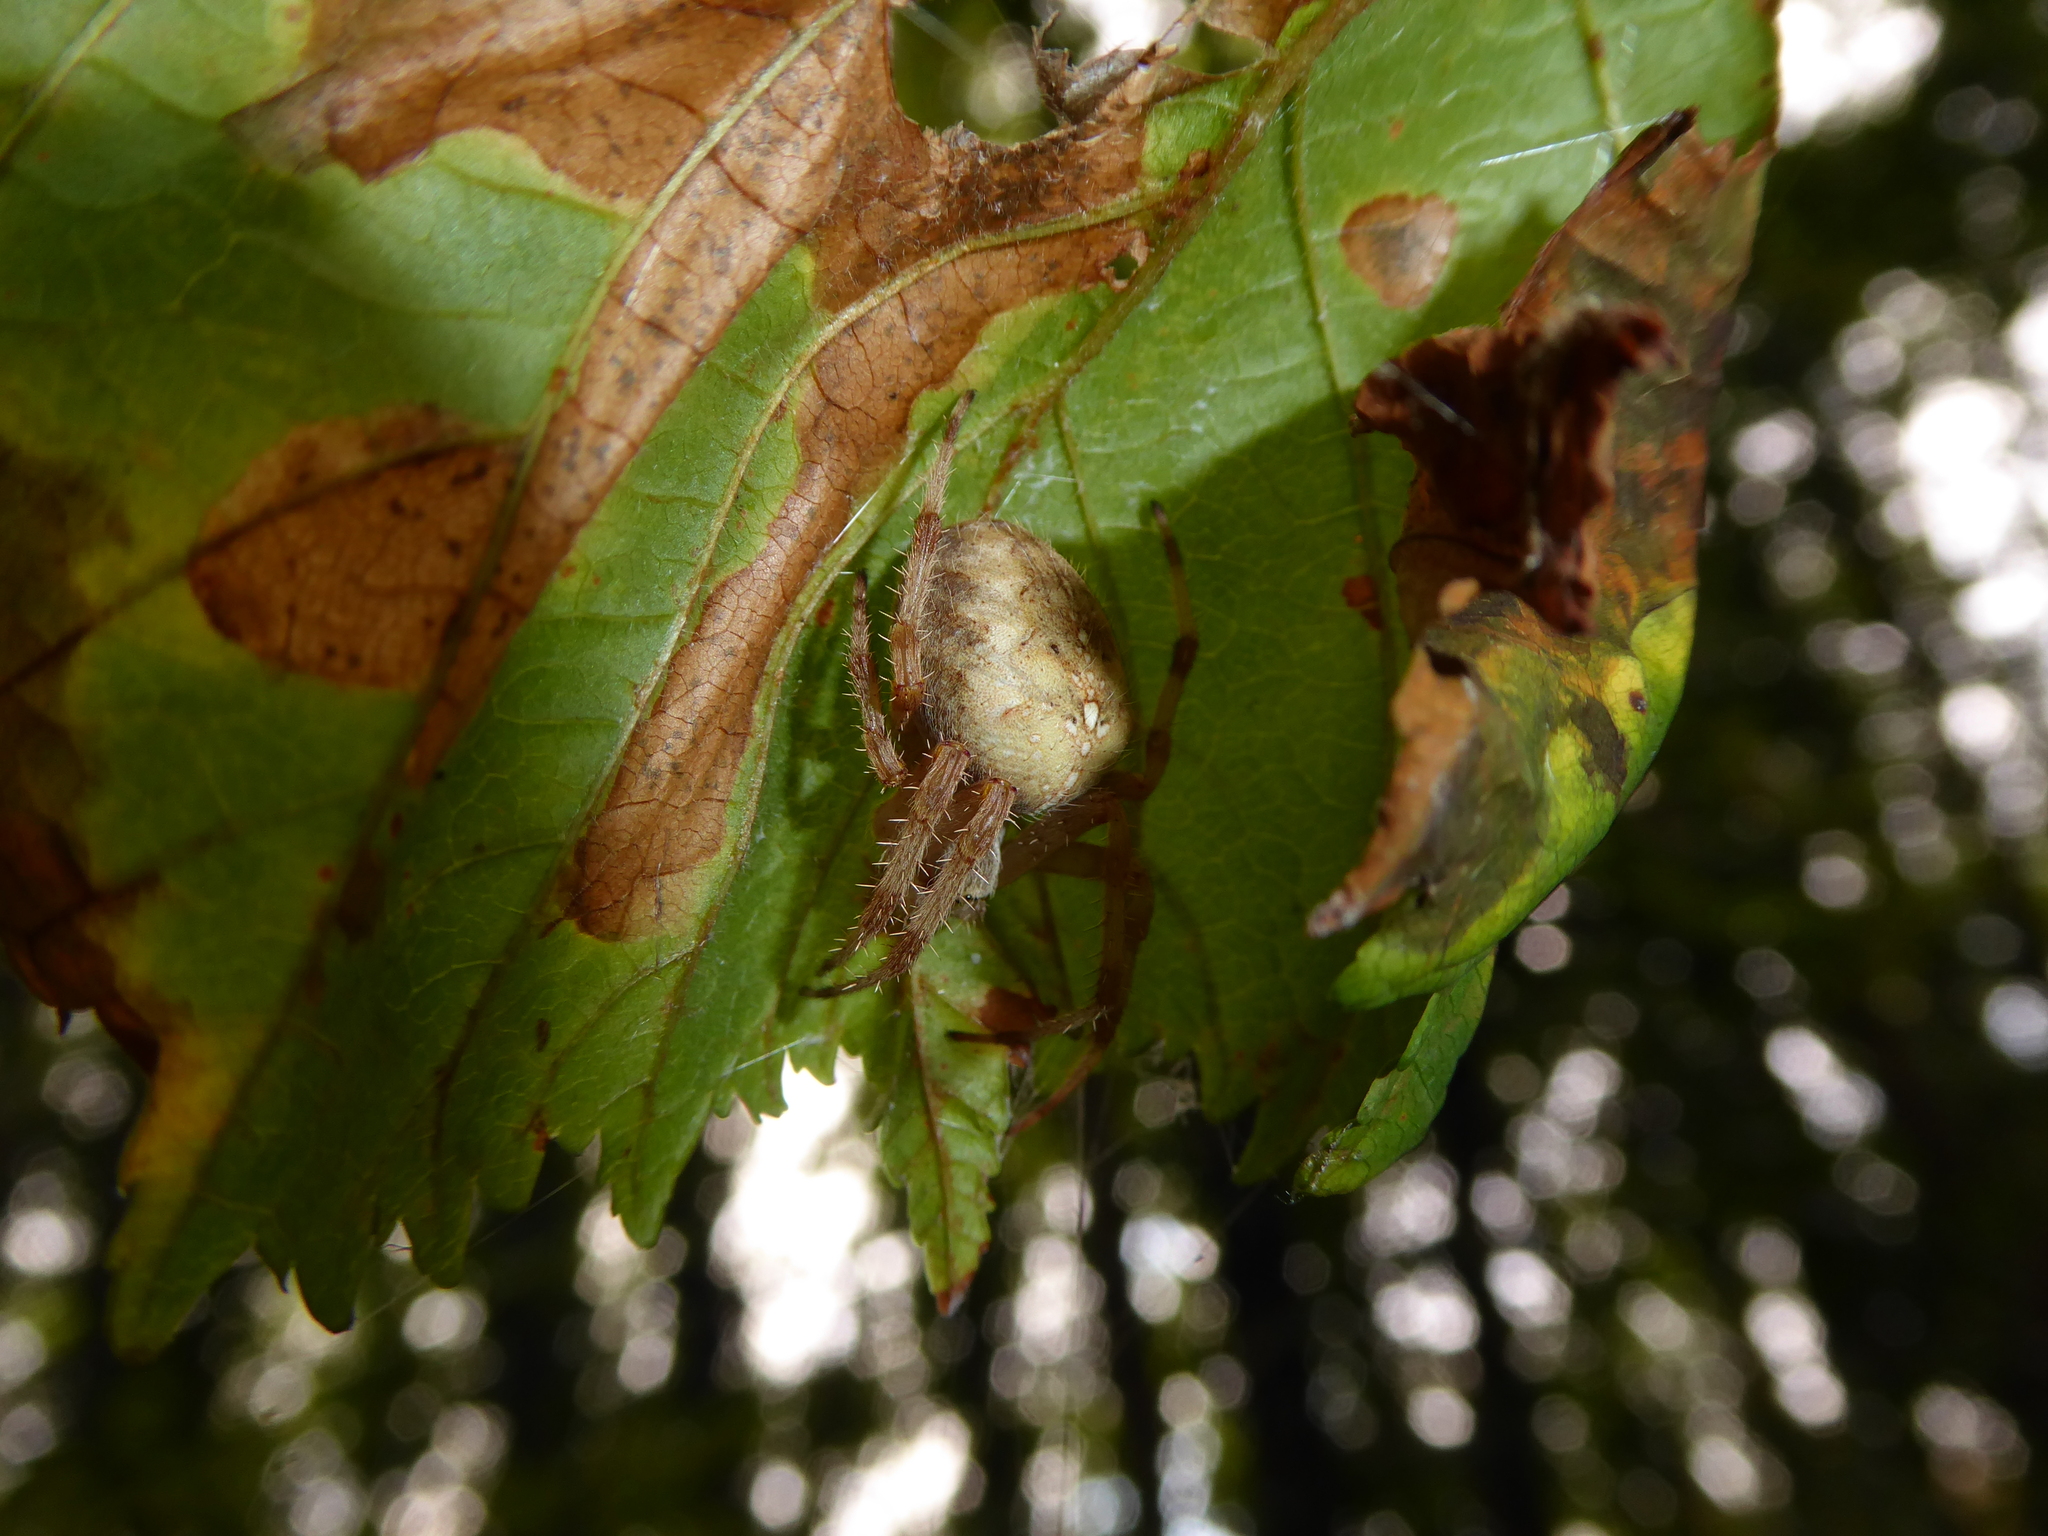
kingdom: Animalia
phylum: Arthropoda
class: Arachnida
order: Araneae
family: Araneidae
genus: Araneus
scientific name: Araneus diadematus
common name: Cross orbweaver
